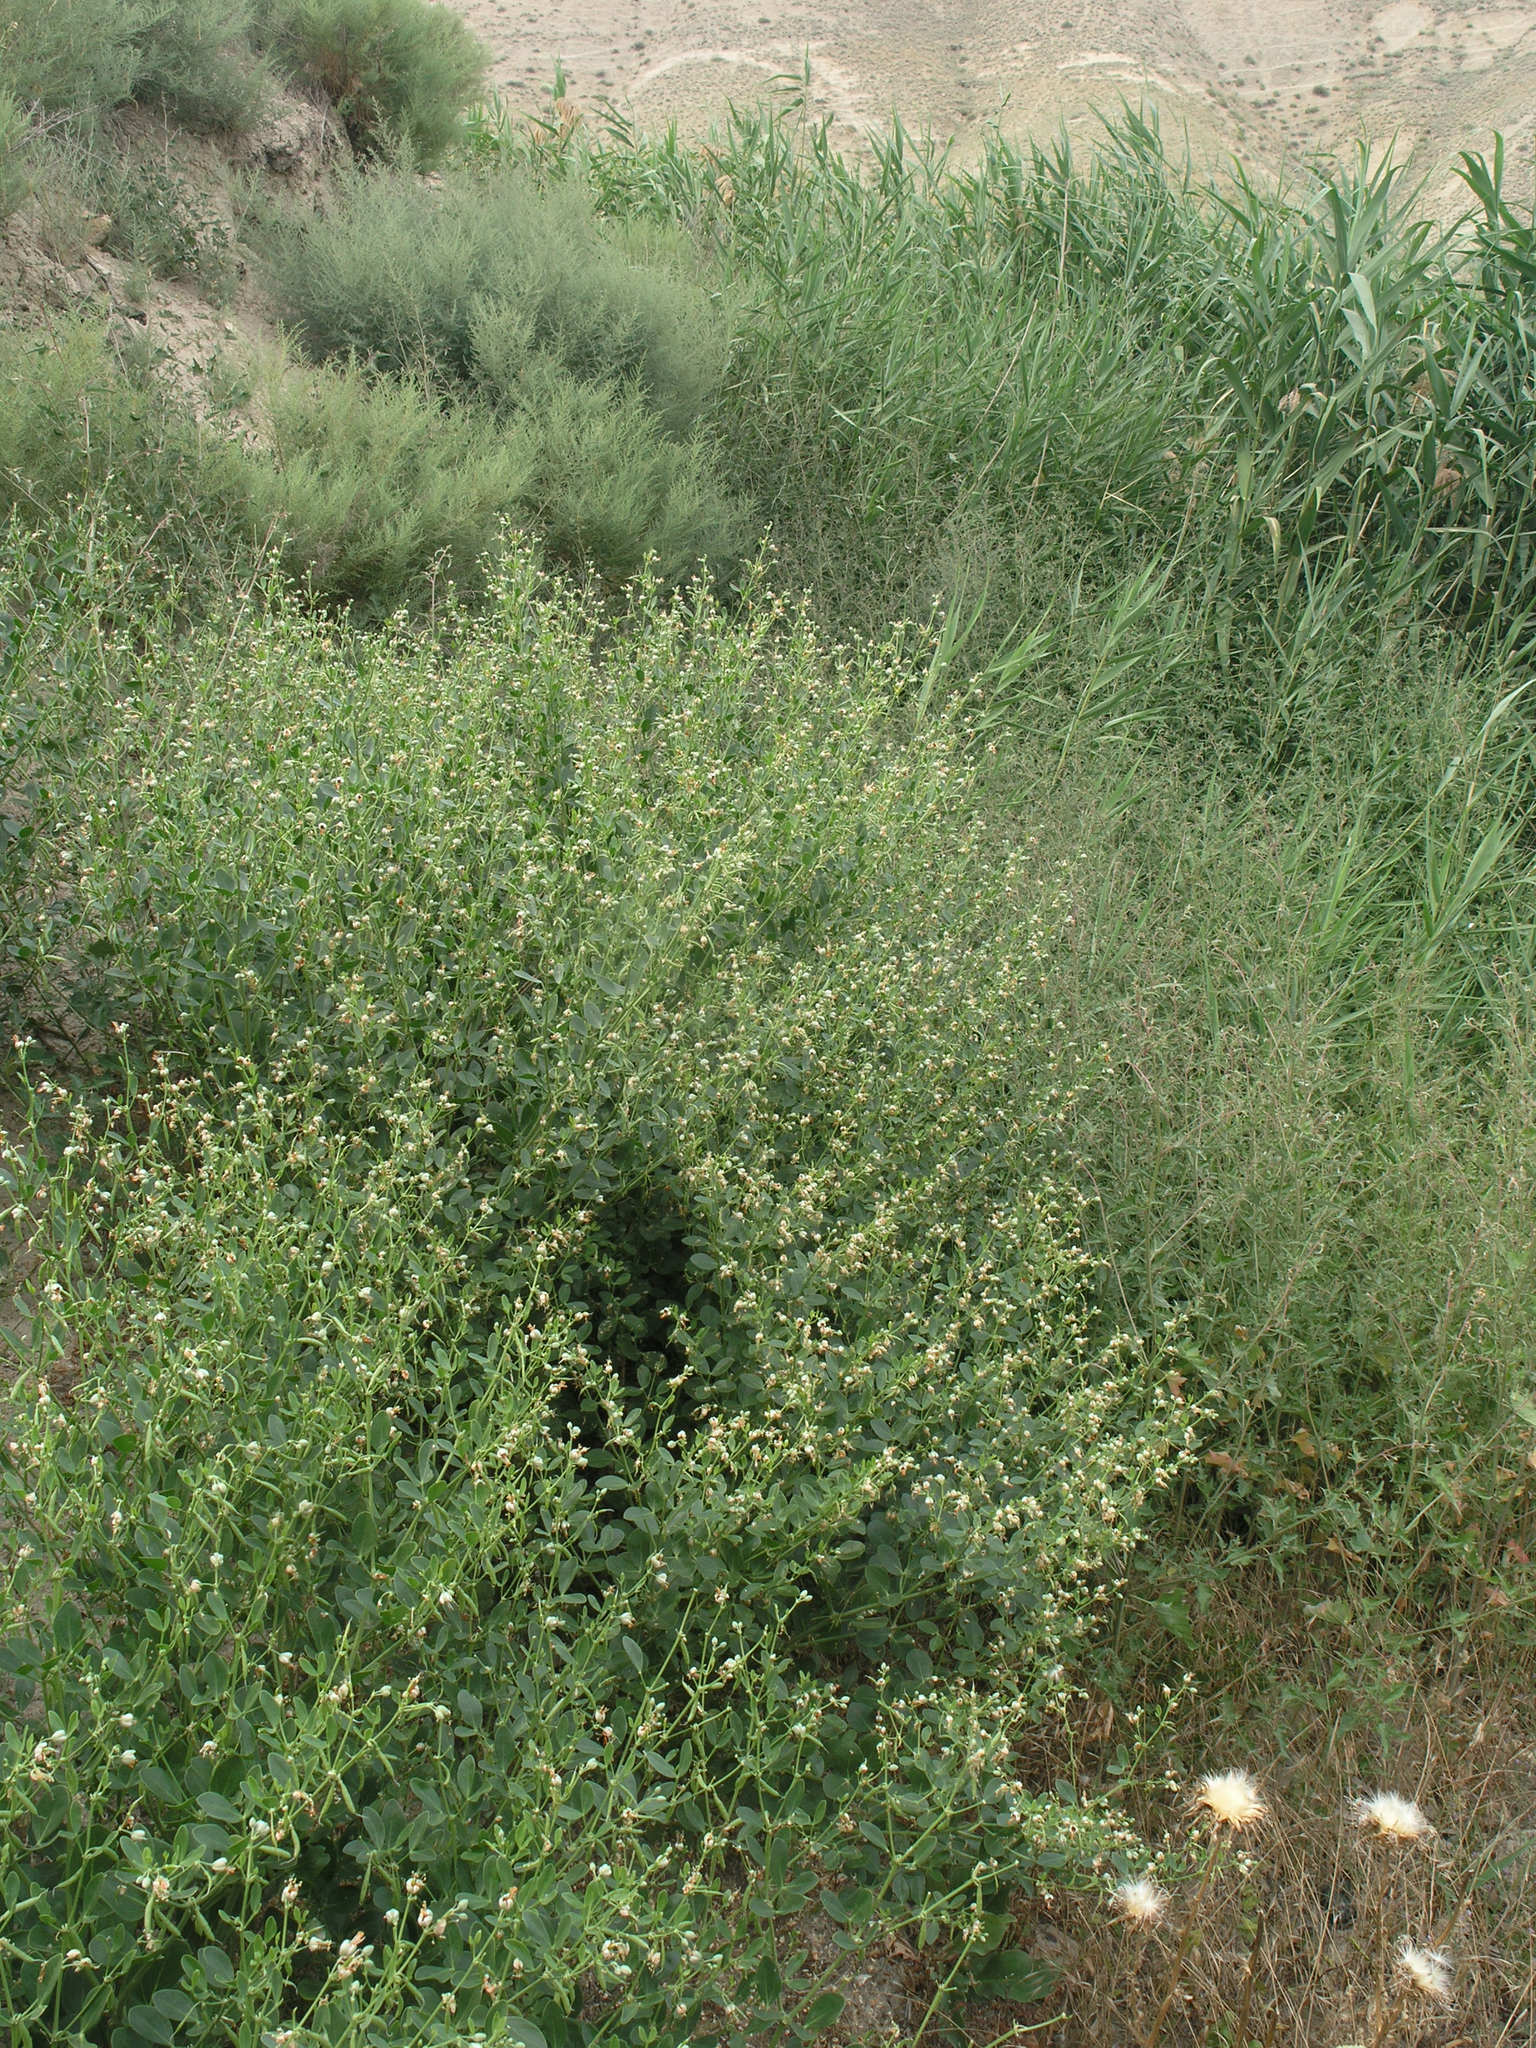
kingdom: Plantae
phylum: Tracheophyta
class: Magnoliopsida
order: Zygophyllales
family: Zygophyllaceae
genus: Zygophyllum
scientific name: Zygophyllum fabago
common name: Syrian beancaper
